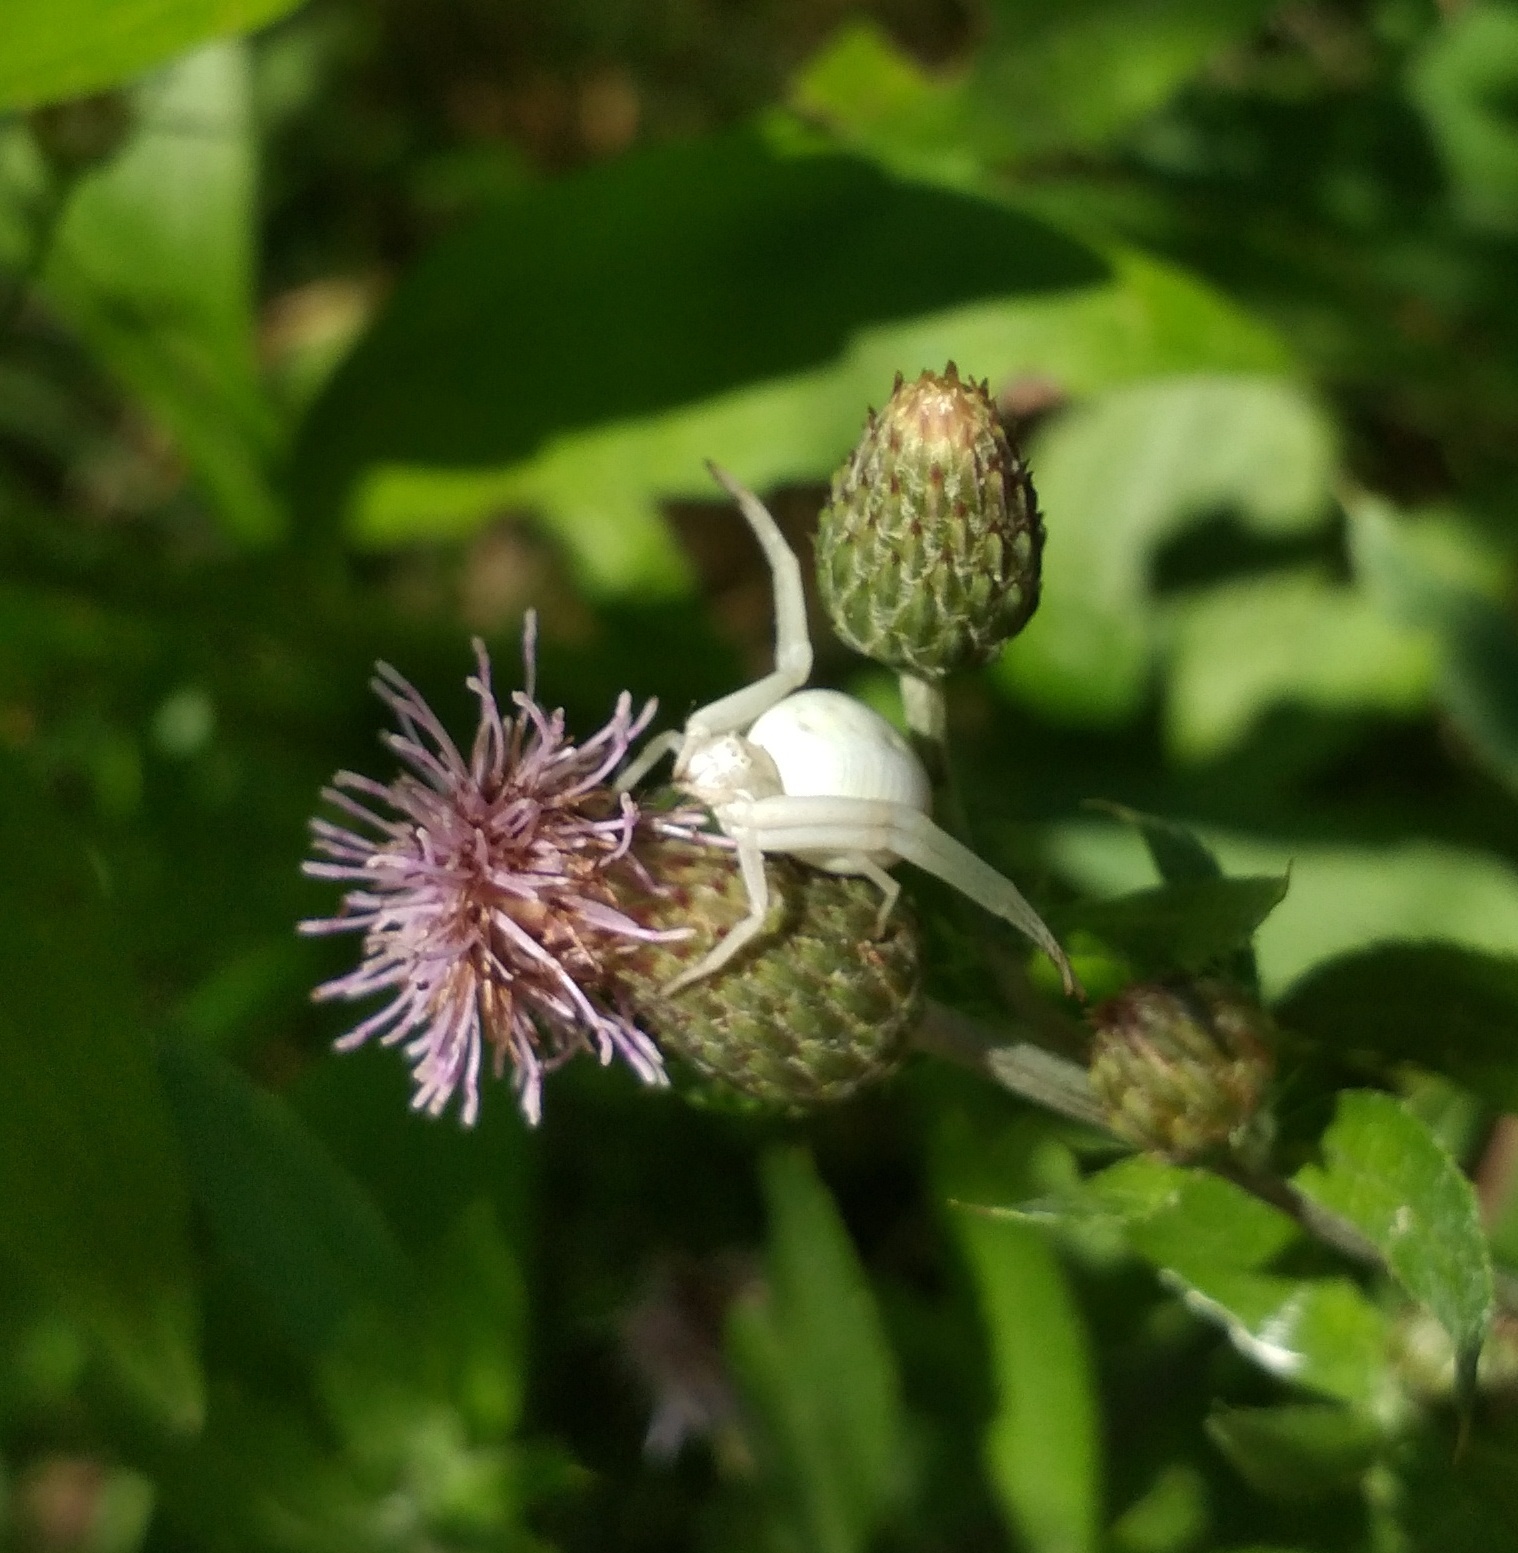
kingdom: Animalia
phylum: Arthropoda
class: Arachnida
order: Araneae
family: Thomisidae
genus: Misumena
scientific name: Misumena vatia
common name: Goldenrod crab spider
